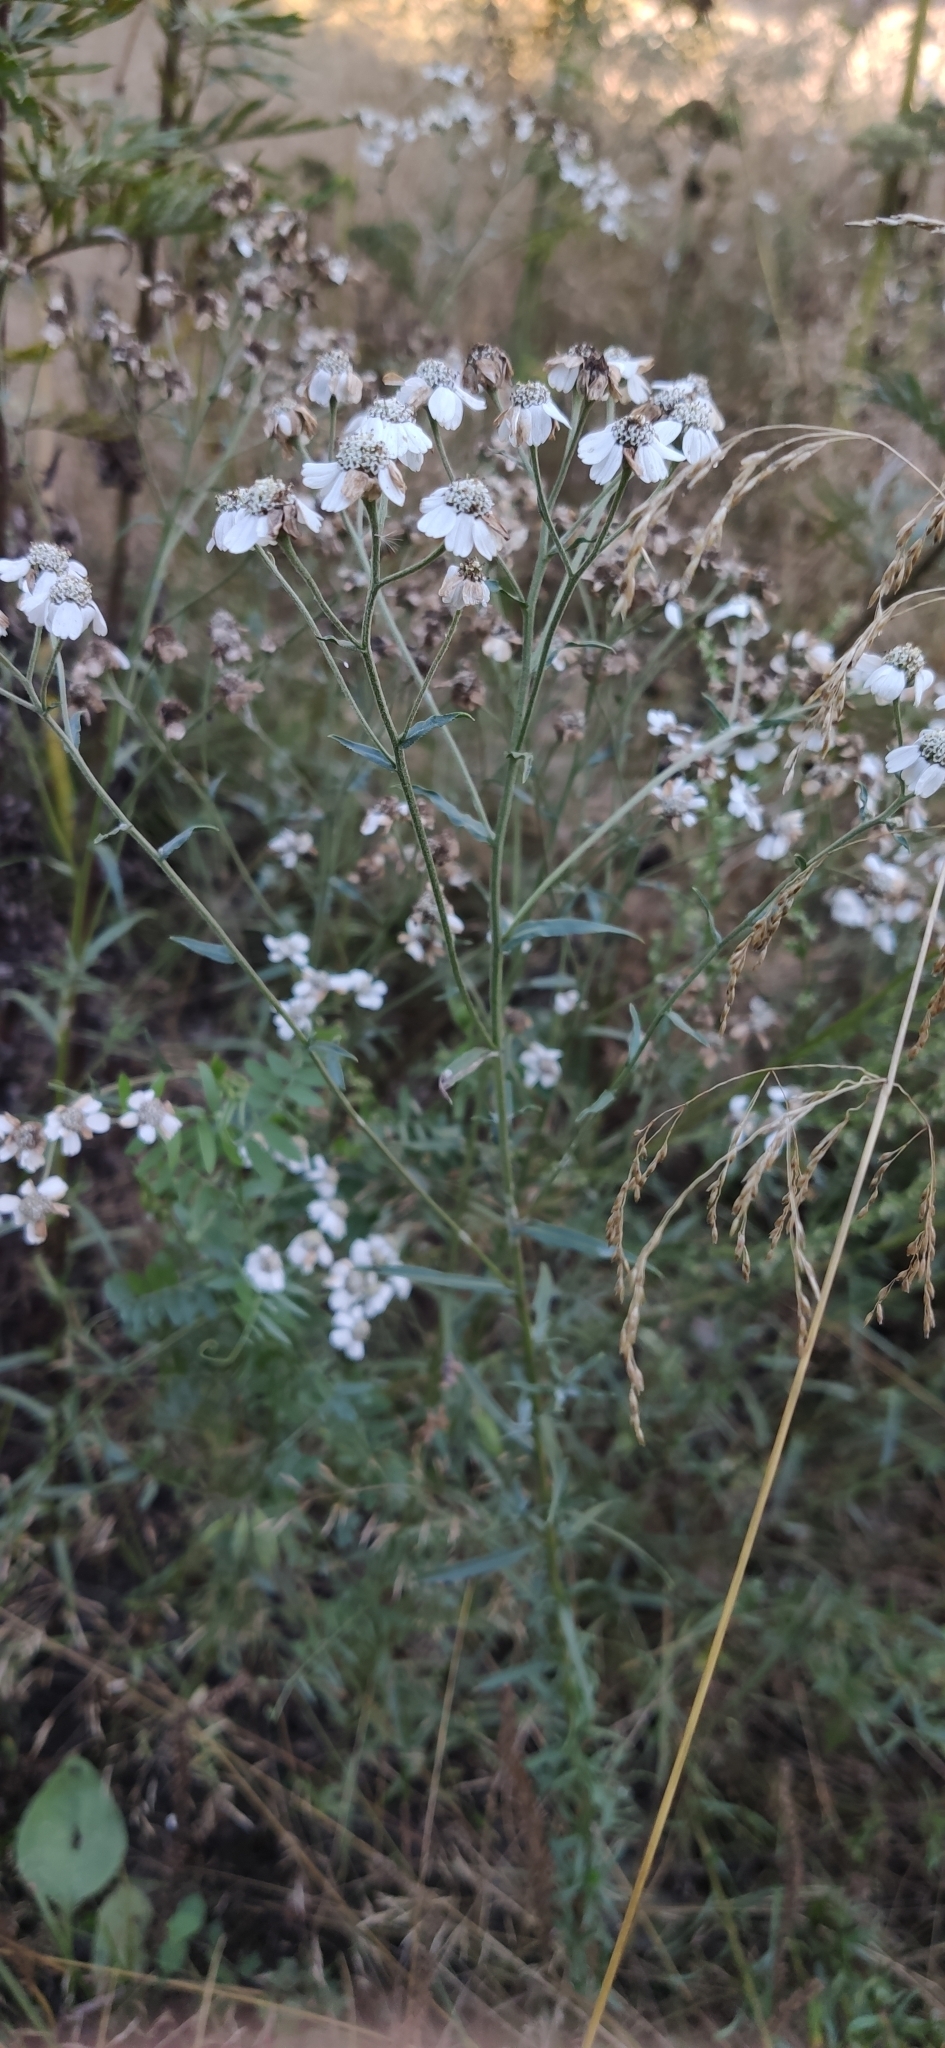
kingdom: Plantae
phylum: Tracheophyta
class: Magnoliopsida
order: Asterales
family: Asteraceae
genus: Achillea
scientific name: Achillea ptarmica
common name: Sneezeweed
